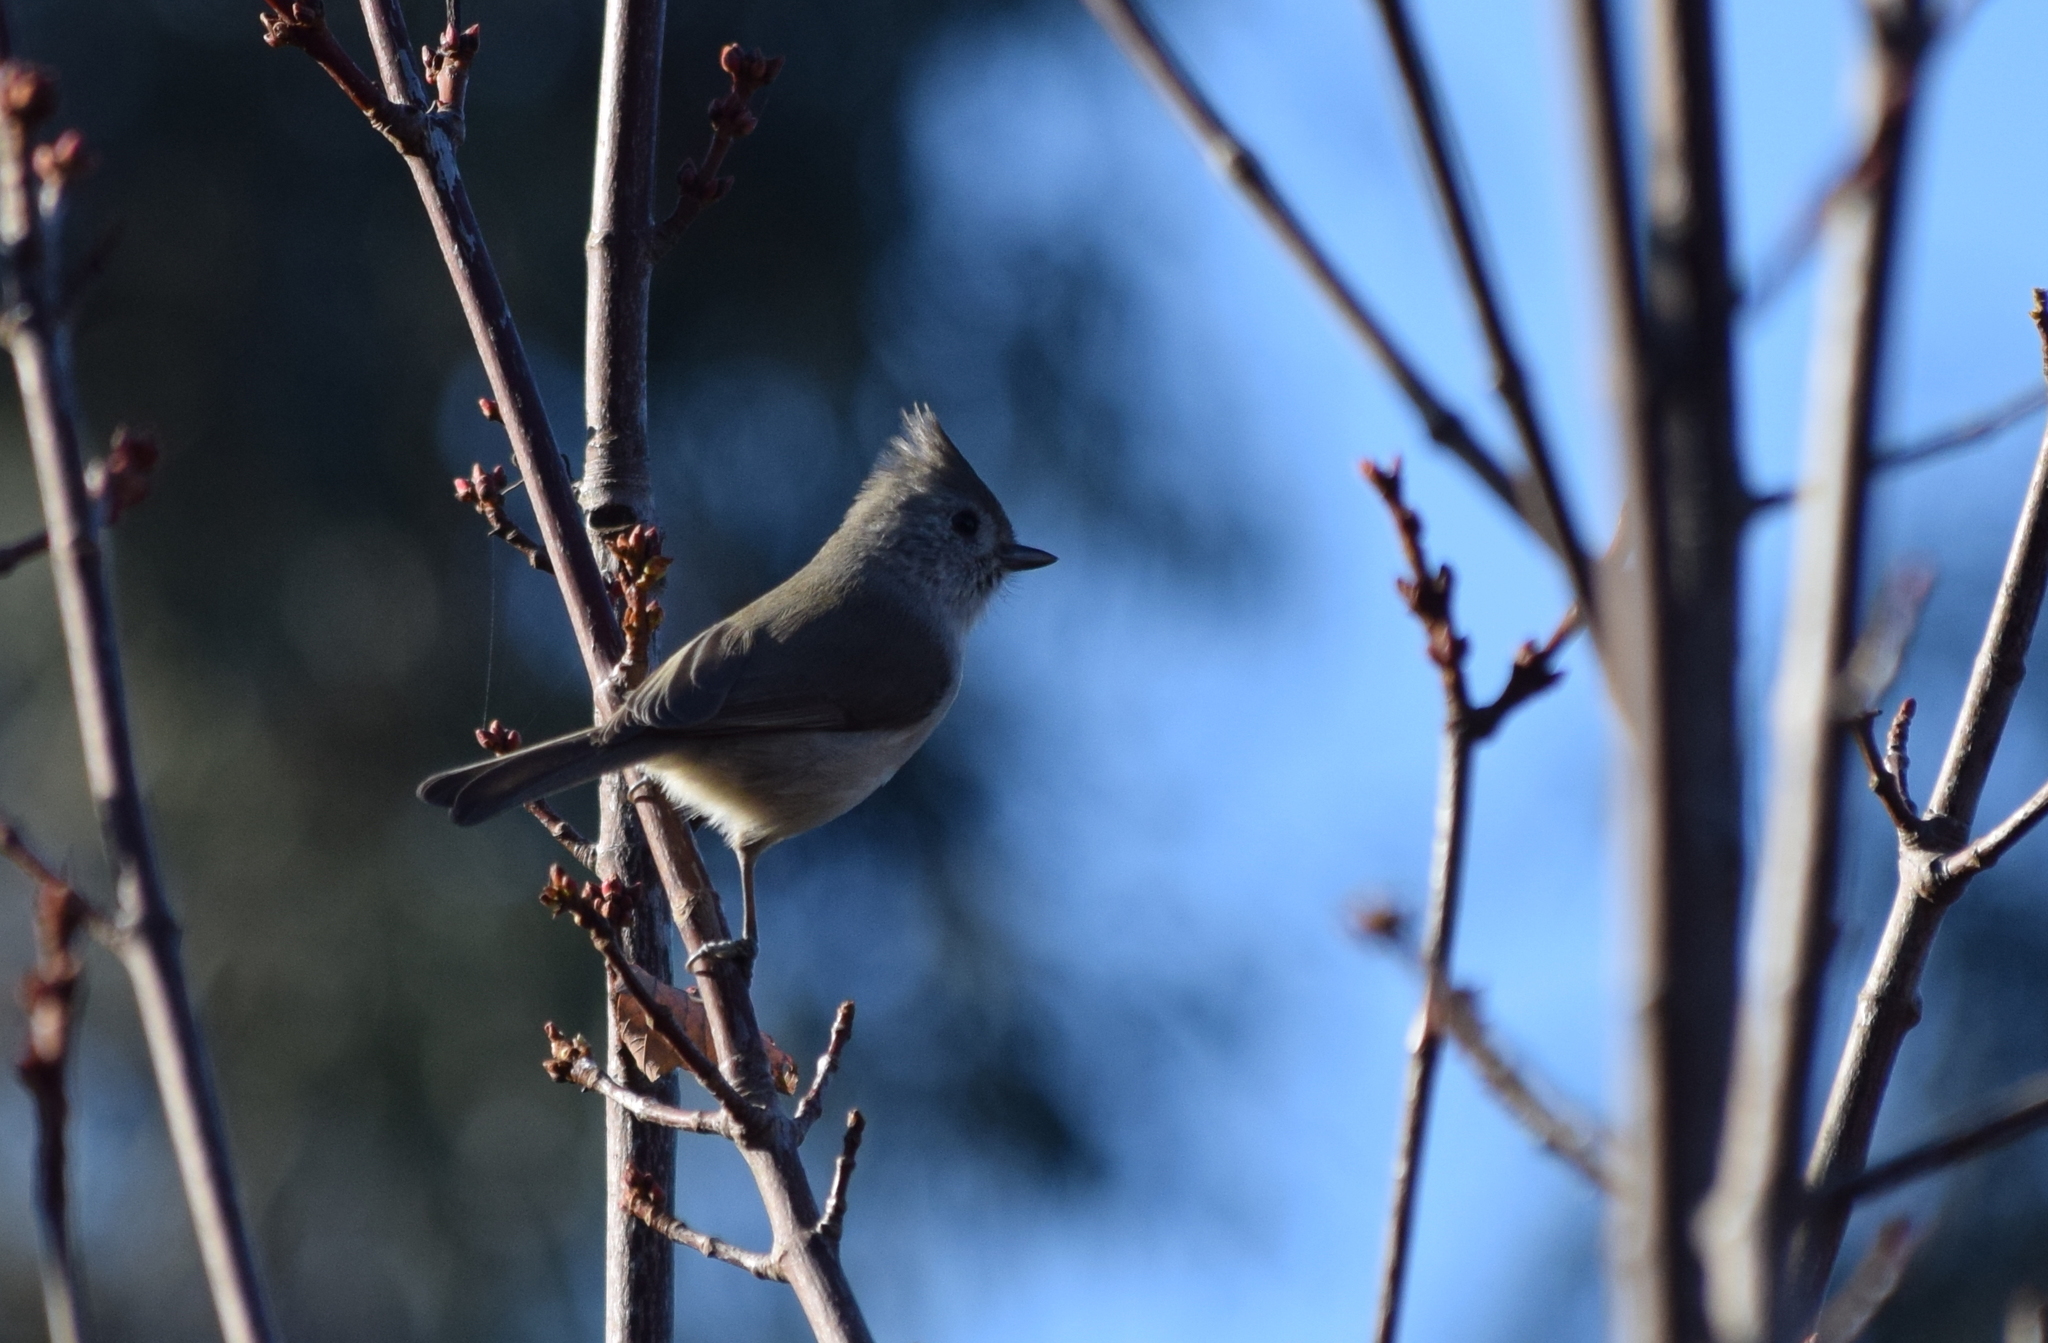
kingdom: Animalia
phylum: Chordata
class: Aves
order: Passeriformes
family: Paridae
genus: Baeolophus
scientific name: Baeolophus inornatus
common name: Oak titmouse
